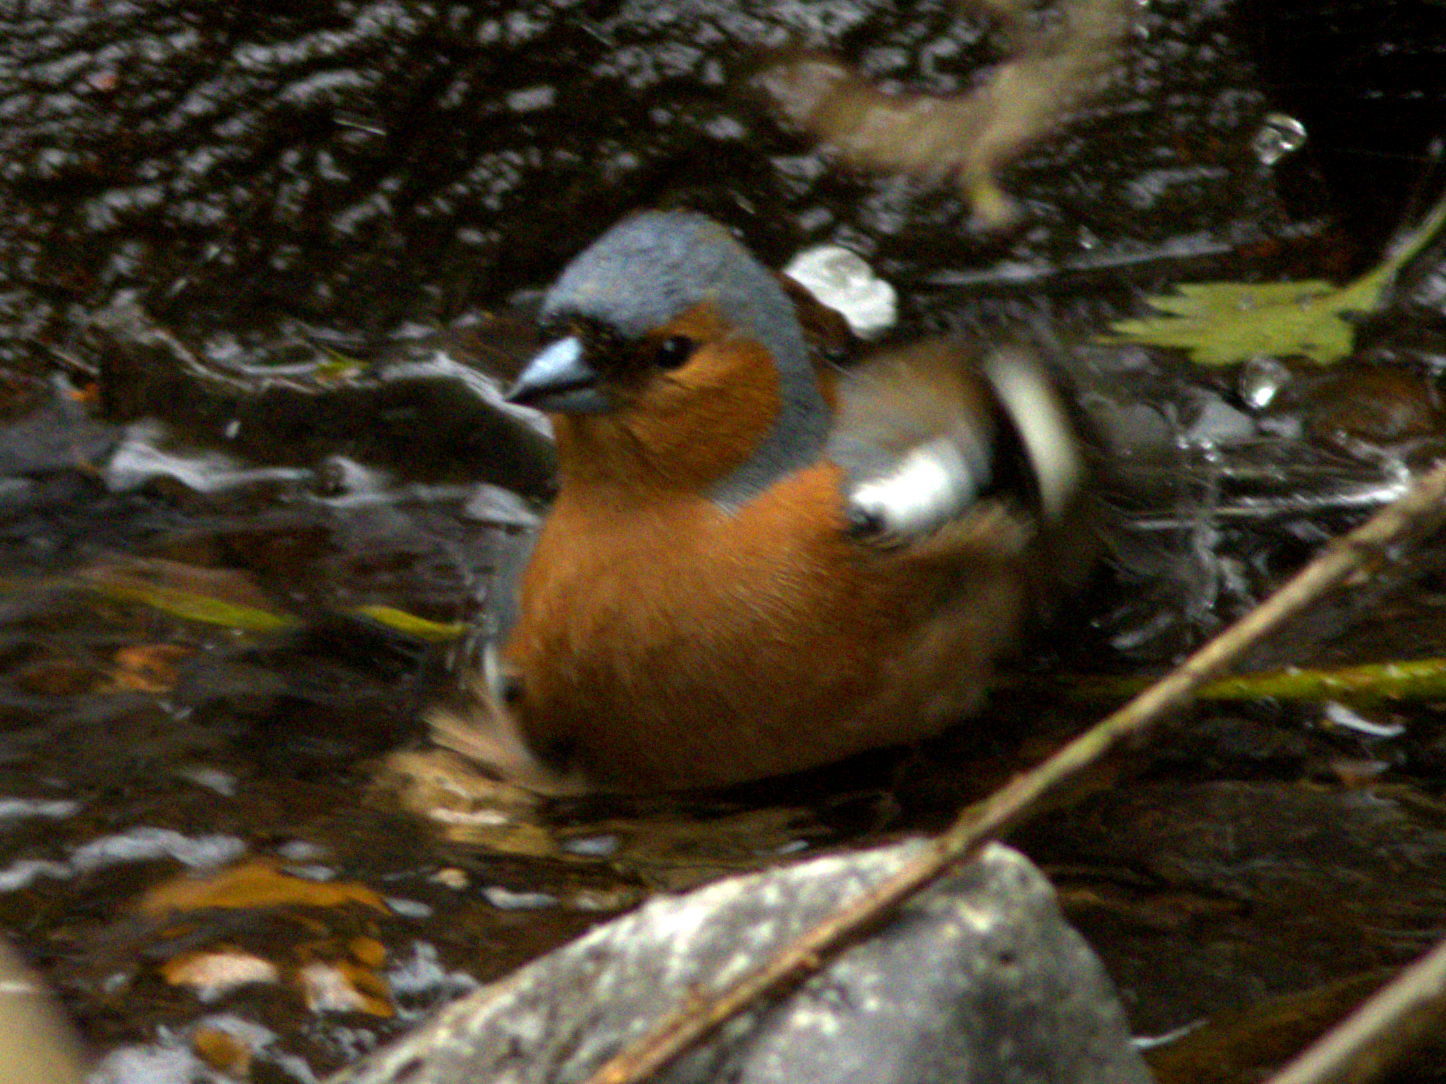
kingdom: Animalia
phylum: Chordata
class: Aves
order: Passeriformes
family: Fringillidae
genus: Fringilla
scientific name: Fringilla coelebs
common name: Common chaffinch
